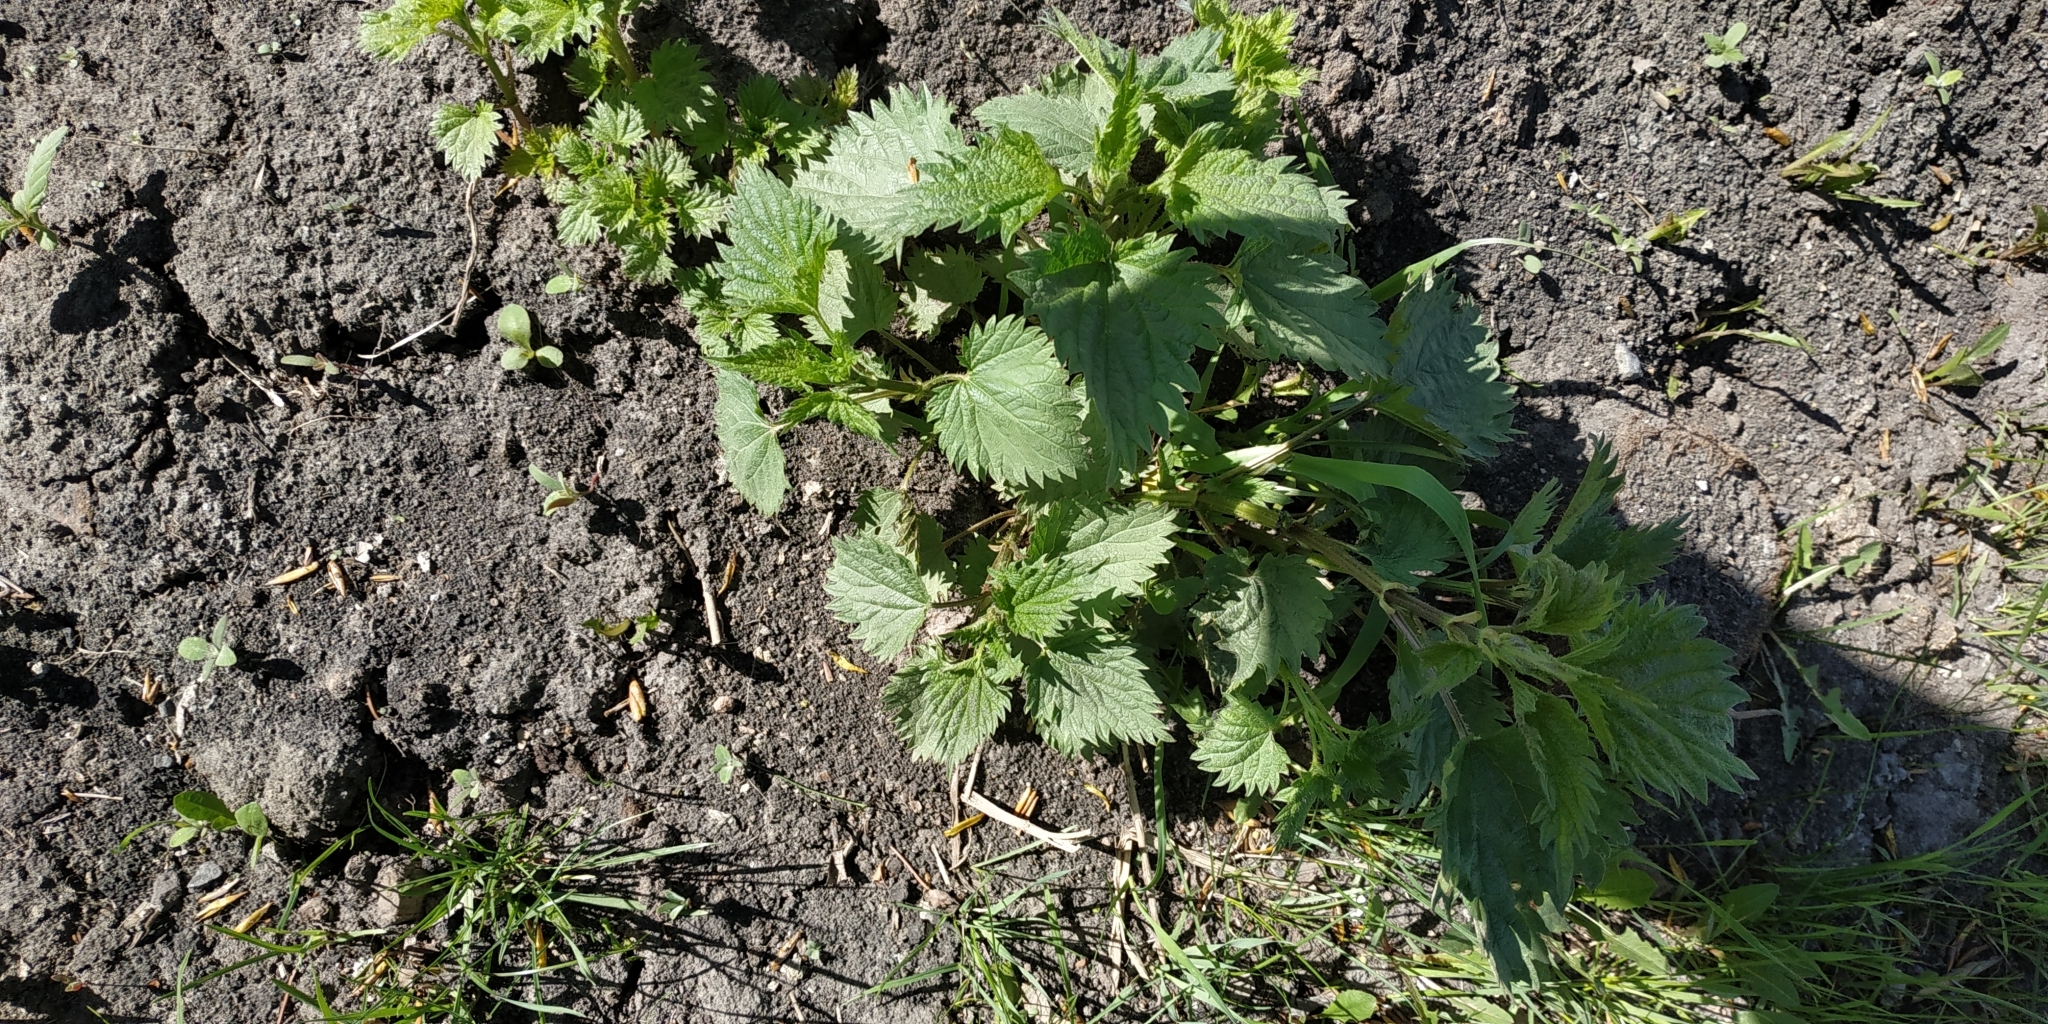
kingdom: Plantae
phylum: Tracheophyta
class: Magnoliopsida
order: Rosales
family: Urticaceae
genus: Urtica
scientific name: Urtica dioica
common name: Common nettle
